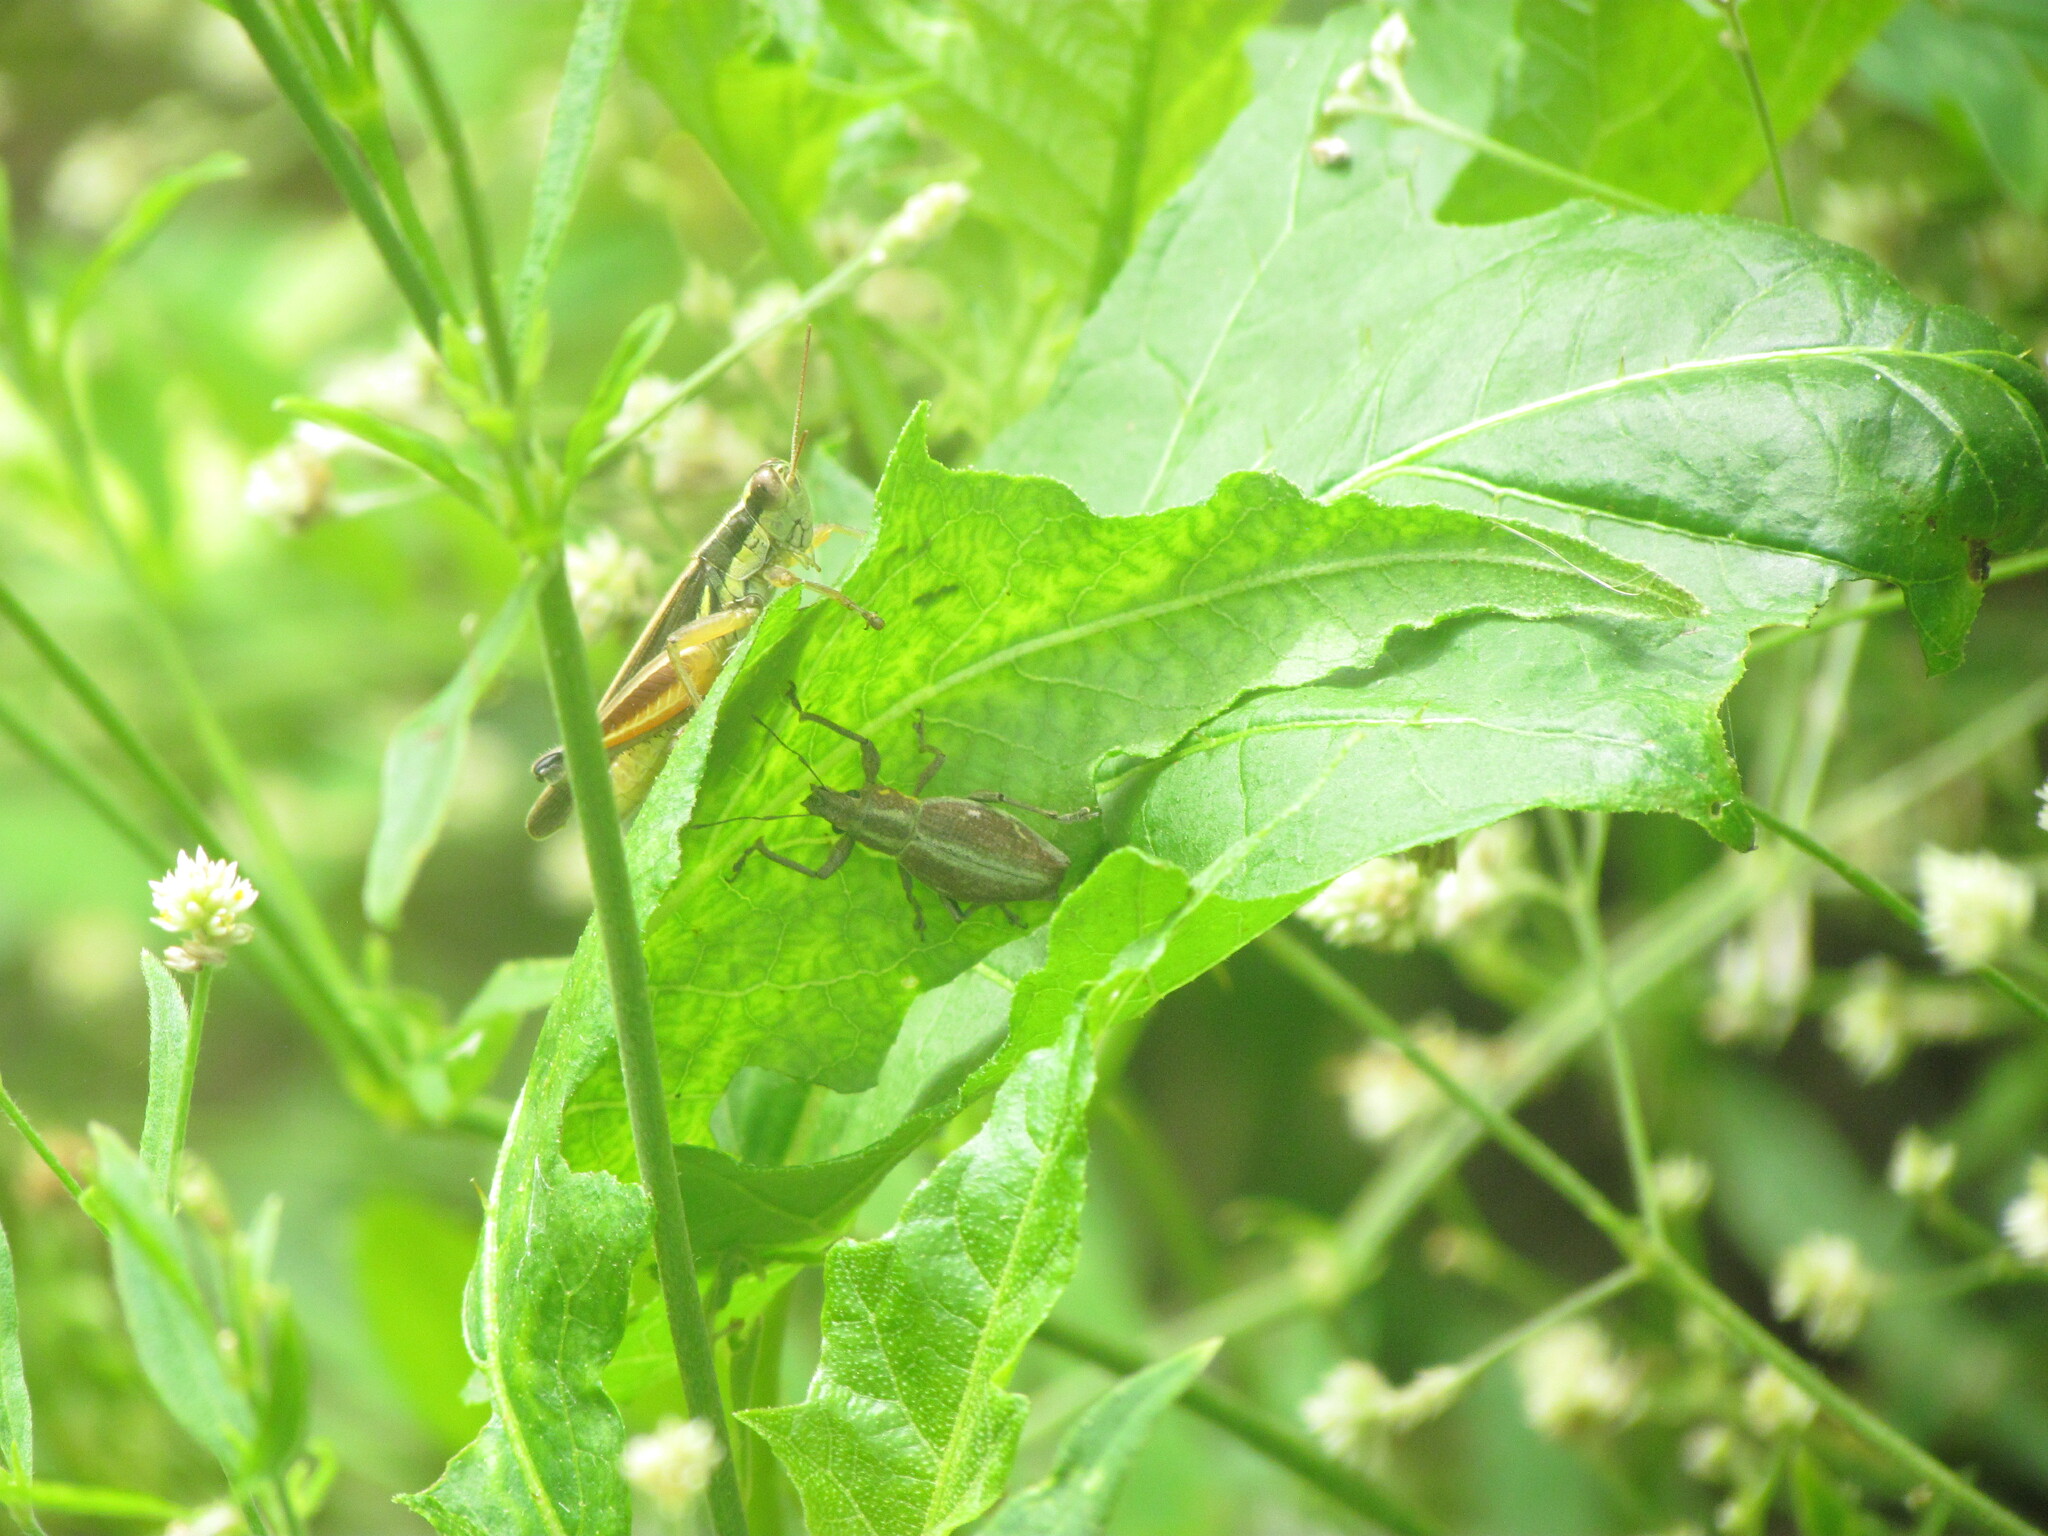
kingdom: Animalia
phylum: Arthropoda
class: Insecta
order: Coleoptera
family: Curculionidae
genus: Naupactus
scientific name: Naupactus xanthographus
